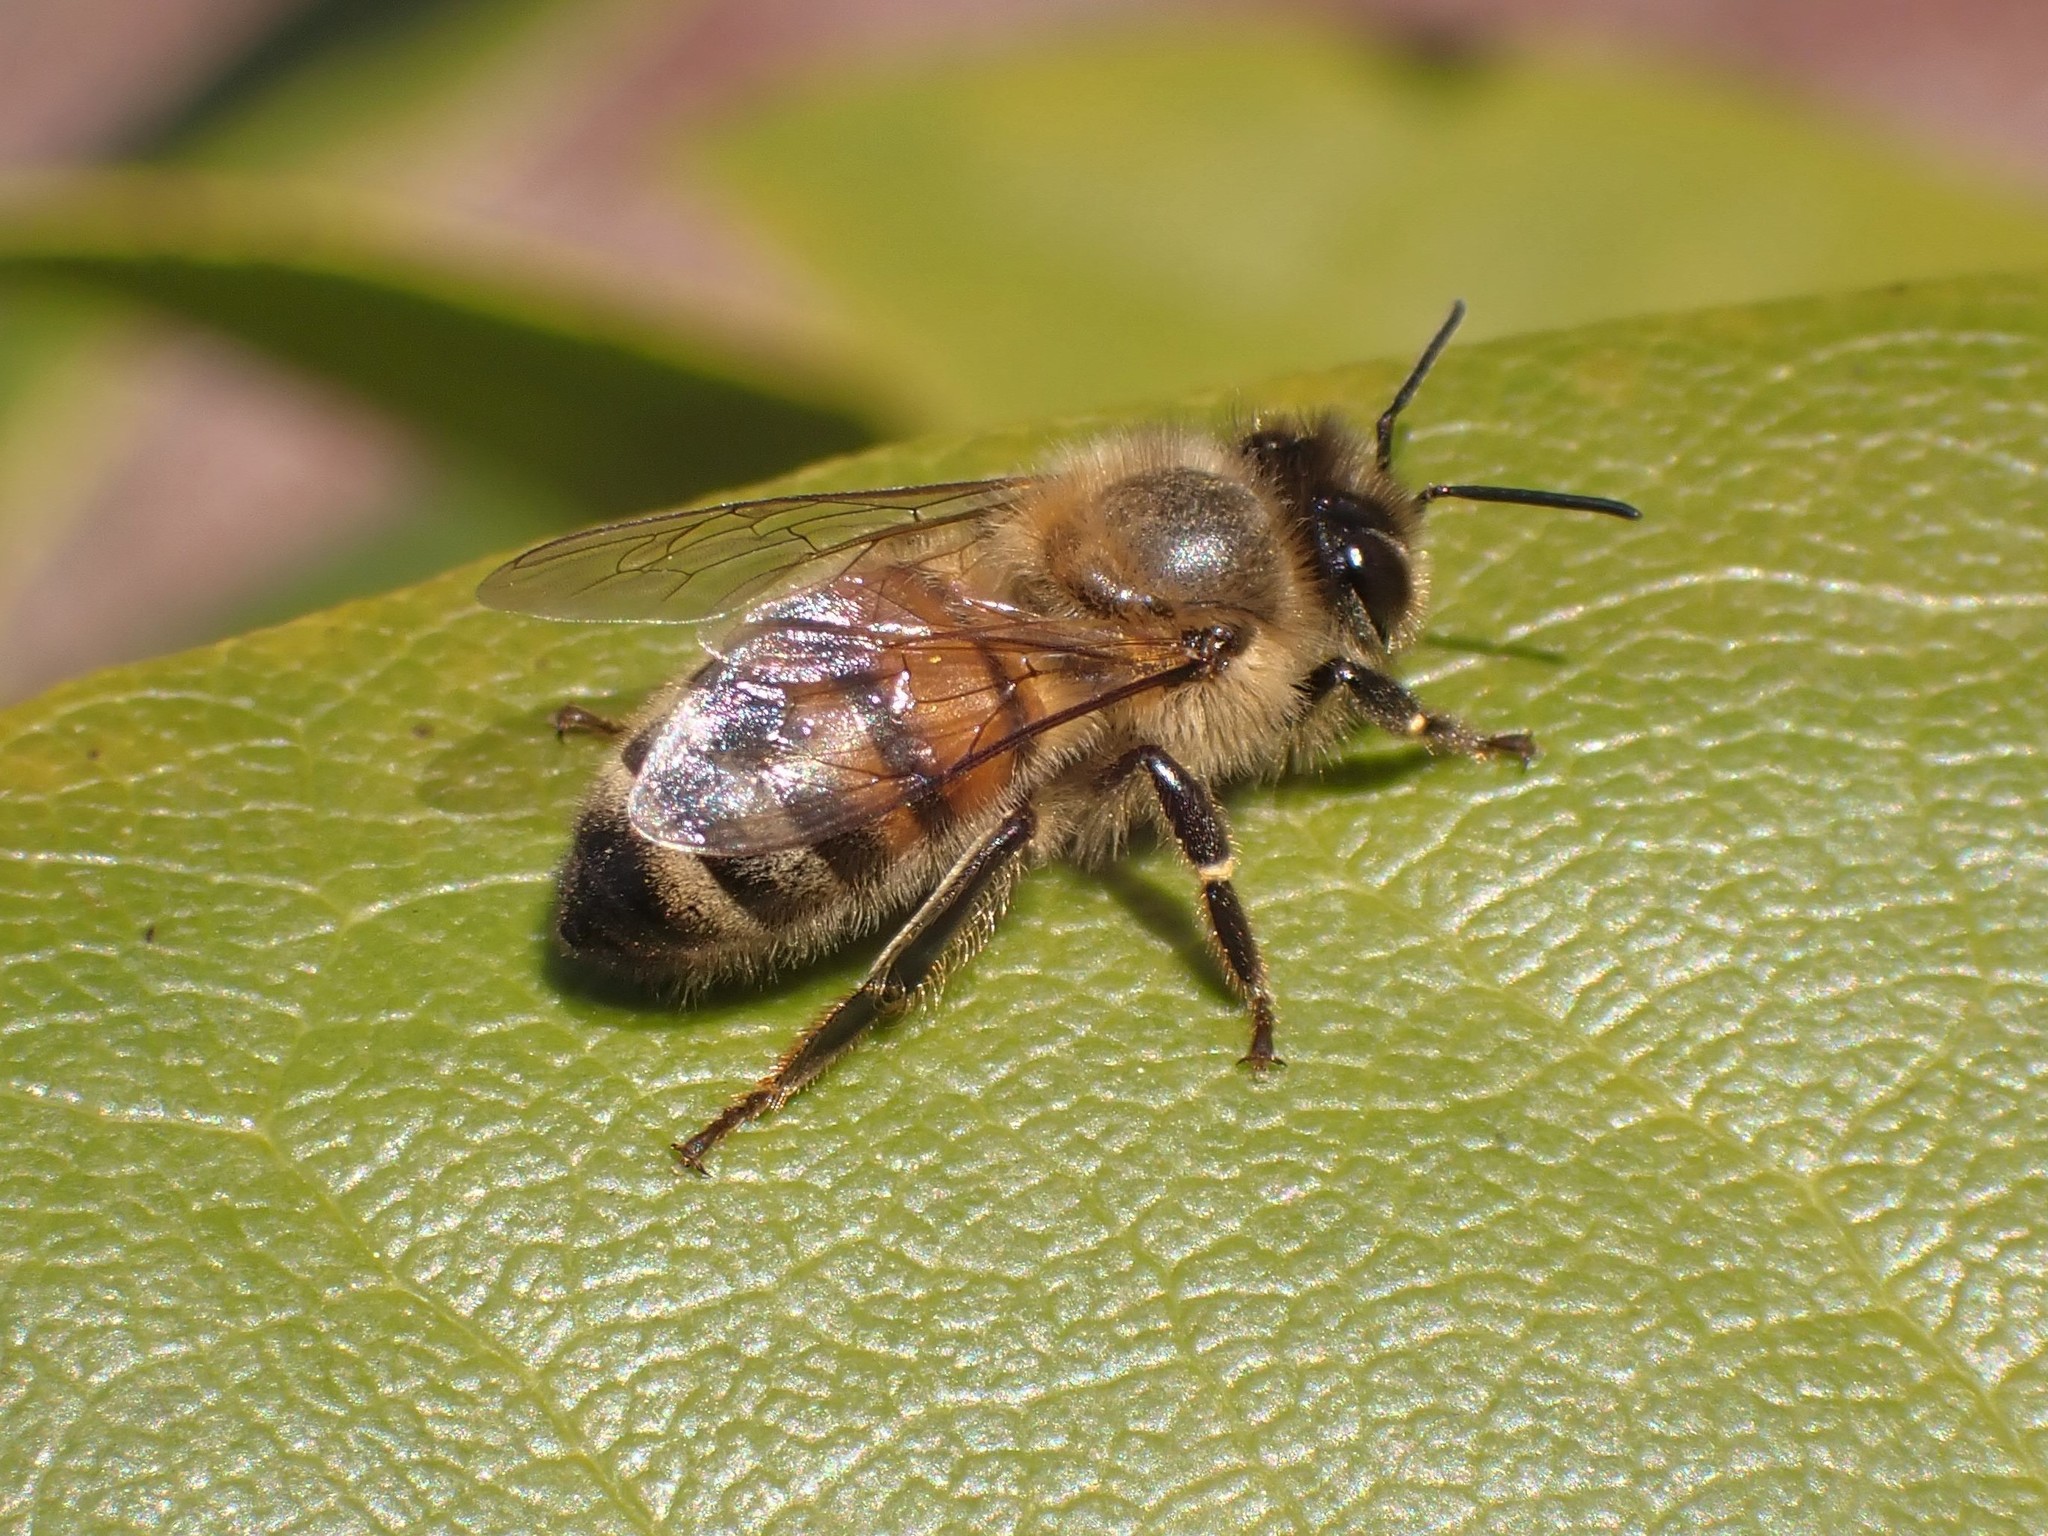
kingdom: Animalia
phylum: Arthropoda
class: Insecta
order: Hymenoptera
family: Apidae
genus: Apis
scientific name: Apis mellifera
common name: Honey bee
